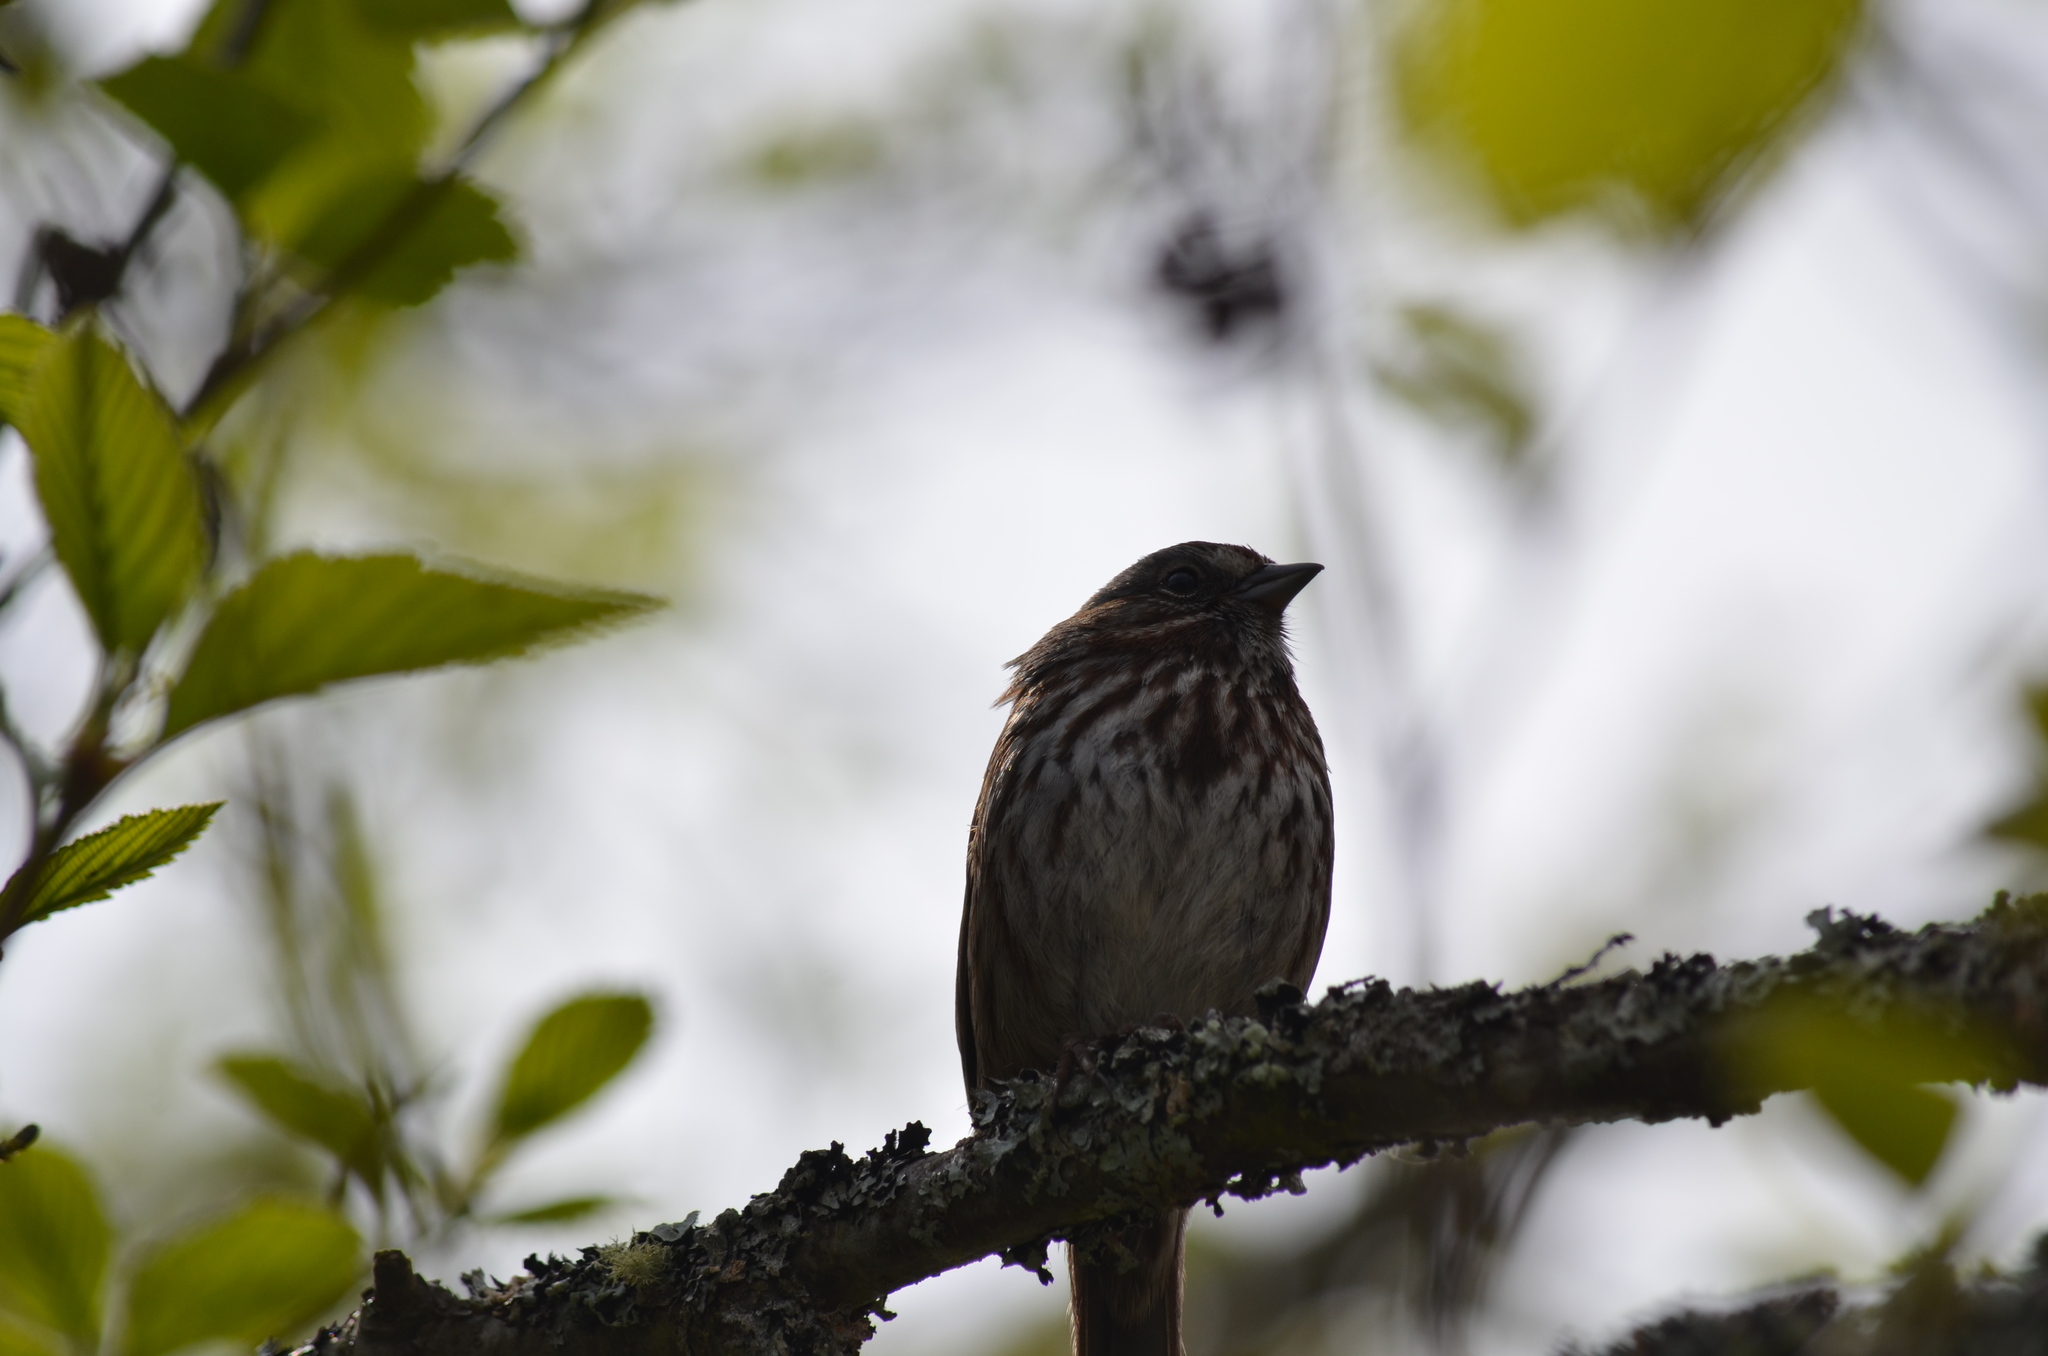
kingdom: Animalia
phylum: Chordata
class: Aves
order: Passeriformes
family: Passerellidae
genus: Melospiza
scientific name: Melospiza melodia
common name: Song sparrow
